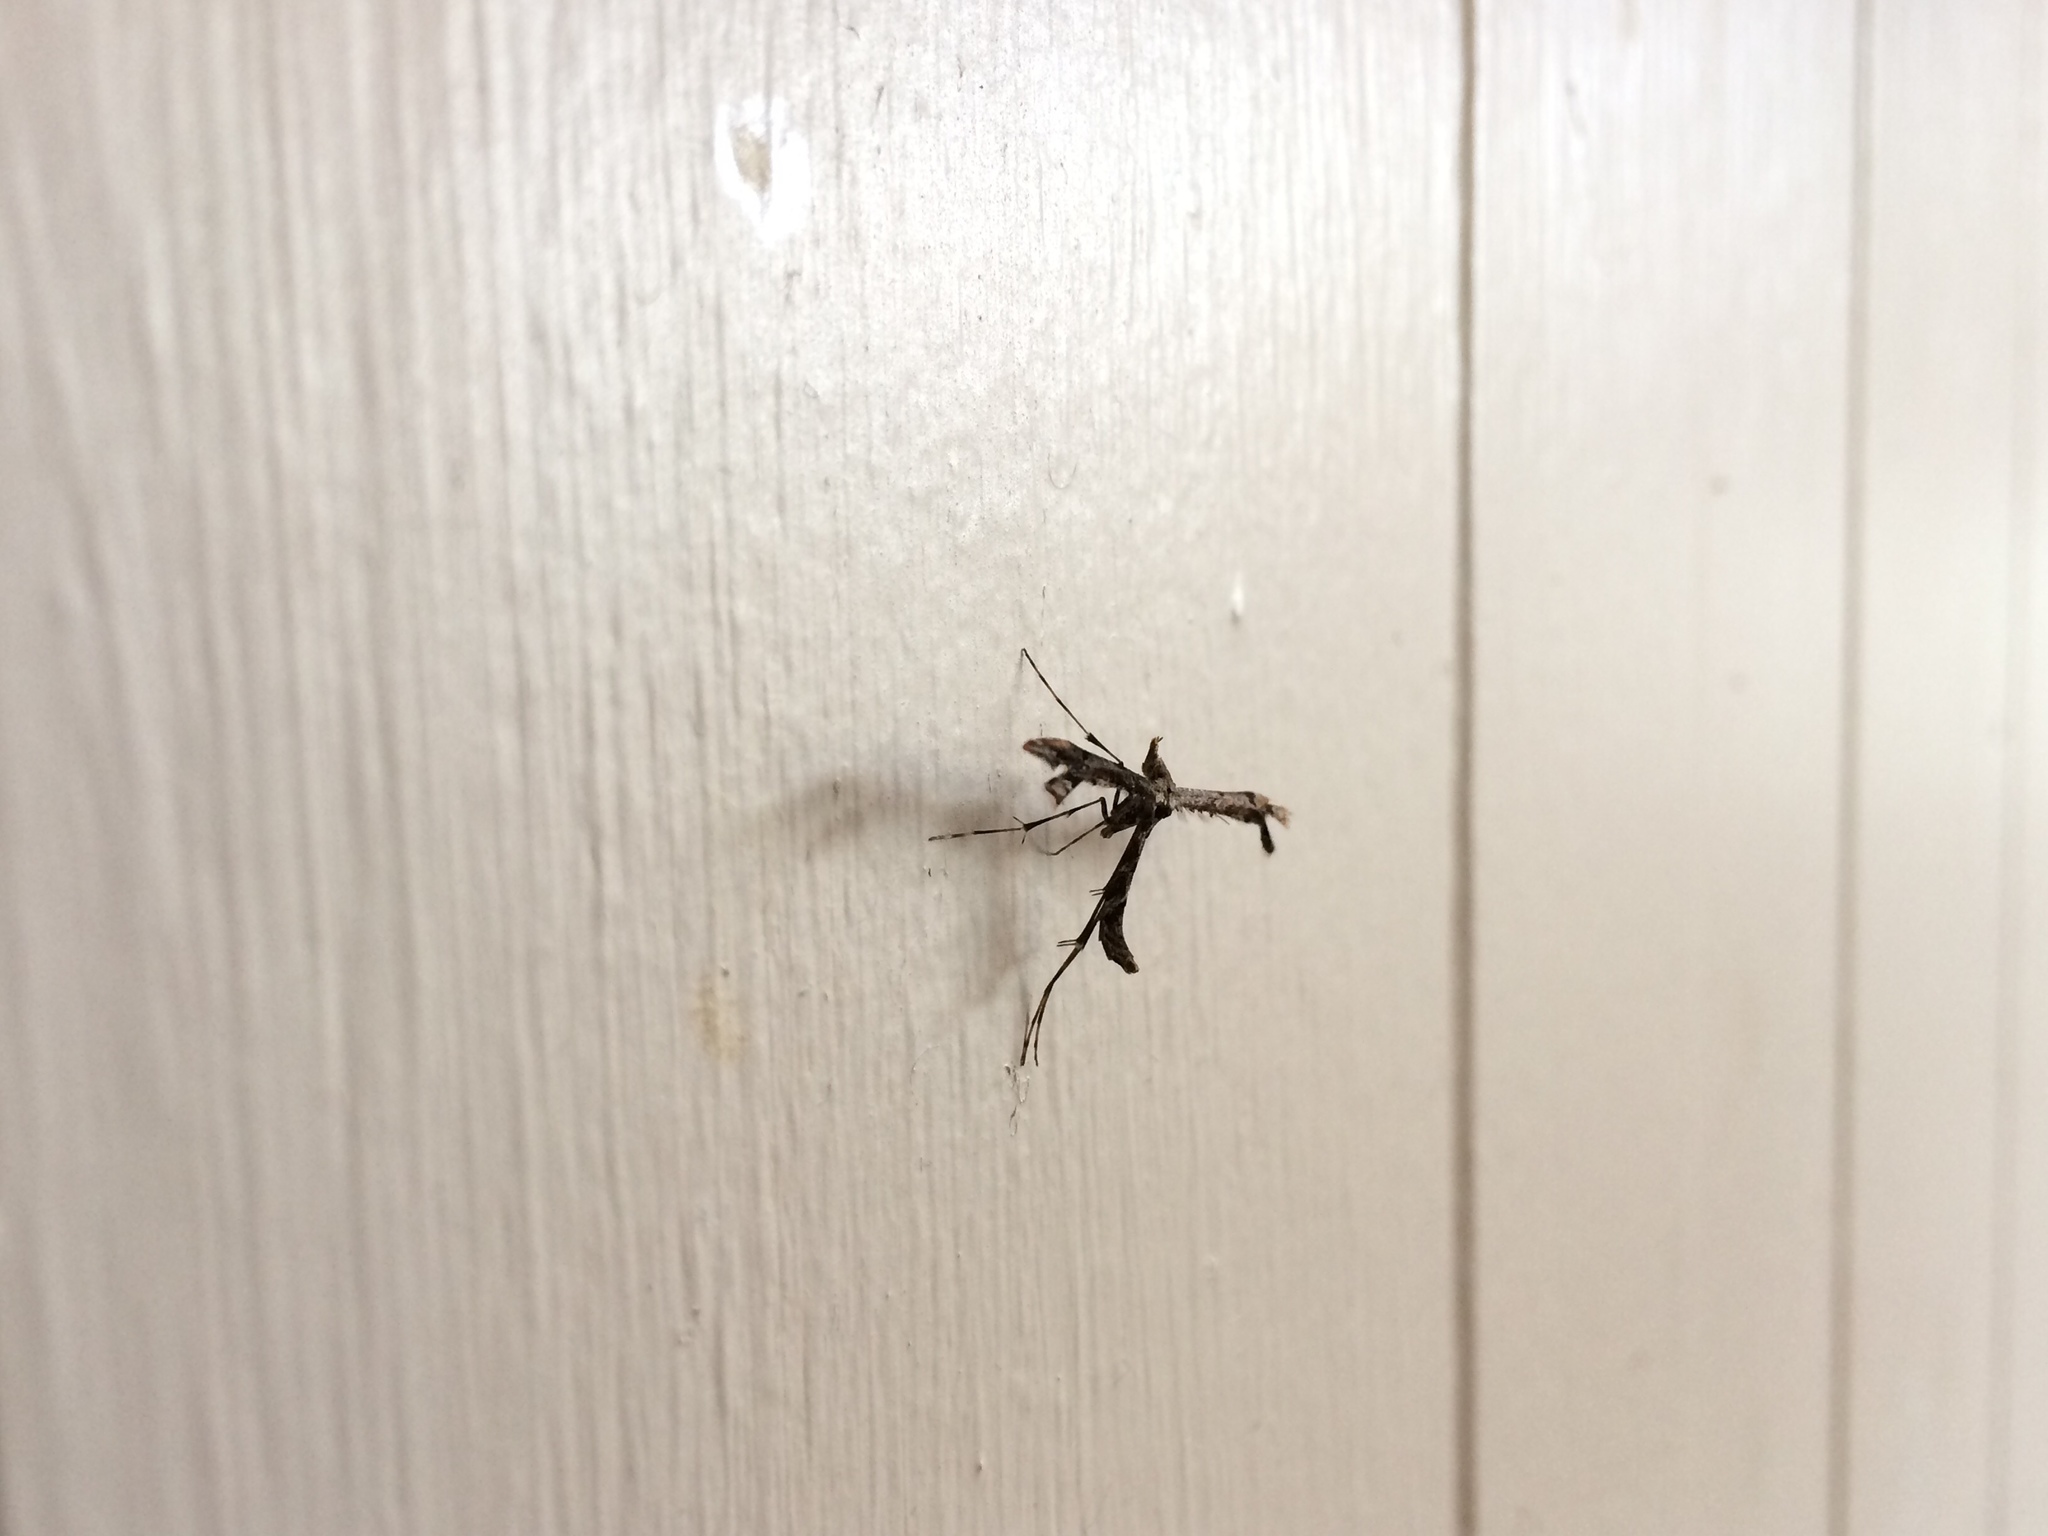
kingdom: Animalia
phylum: Arthropoda
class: Insecta
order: Lepidoptera
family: Pterophoridae
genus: Amblyptilia
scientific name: Amblyptilia repletalis
